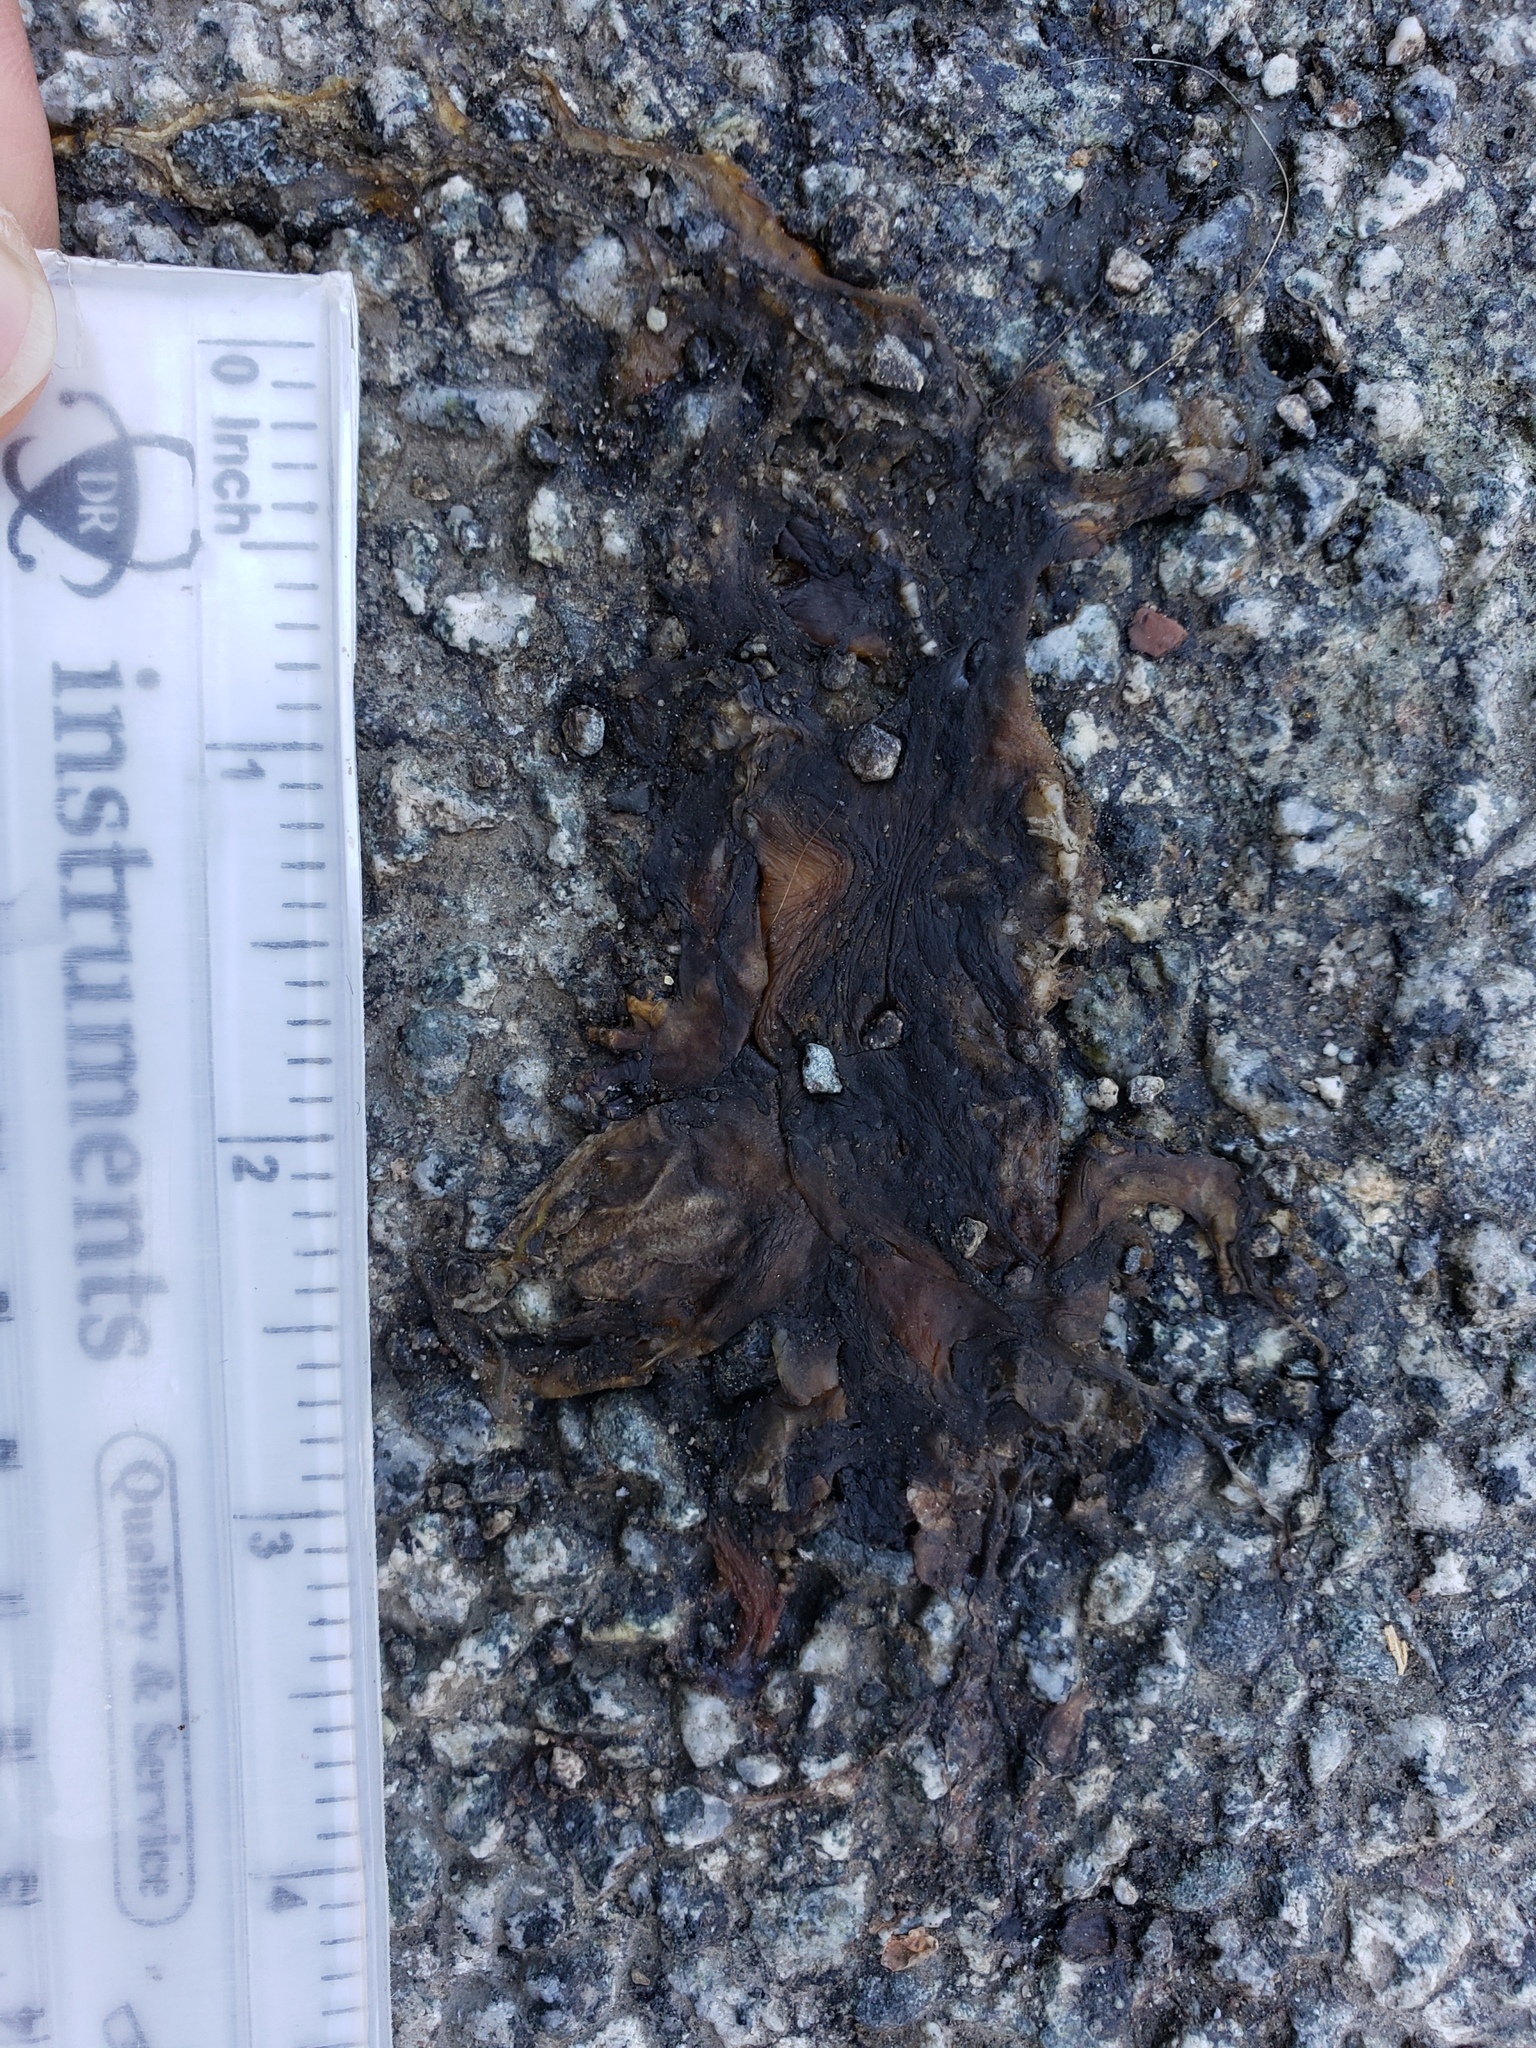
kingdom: Animalia
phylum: Chordata
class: Amphibia
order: Caudata
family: Salamandridae
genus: Taricha
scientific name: Taricha
